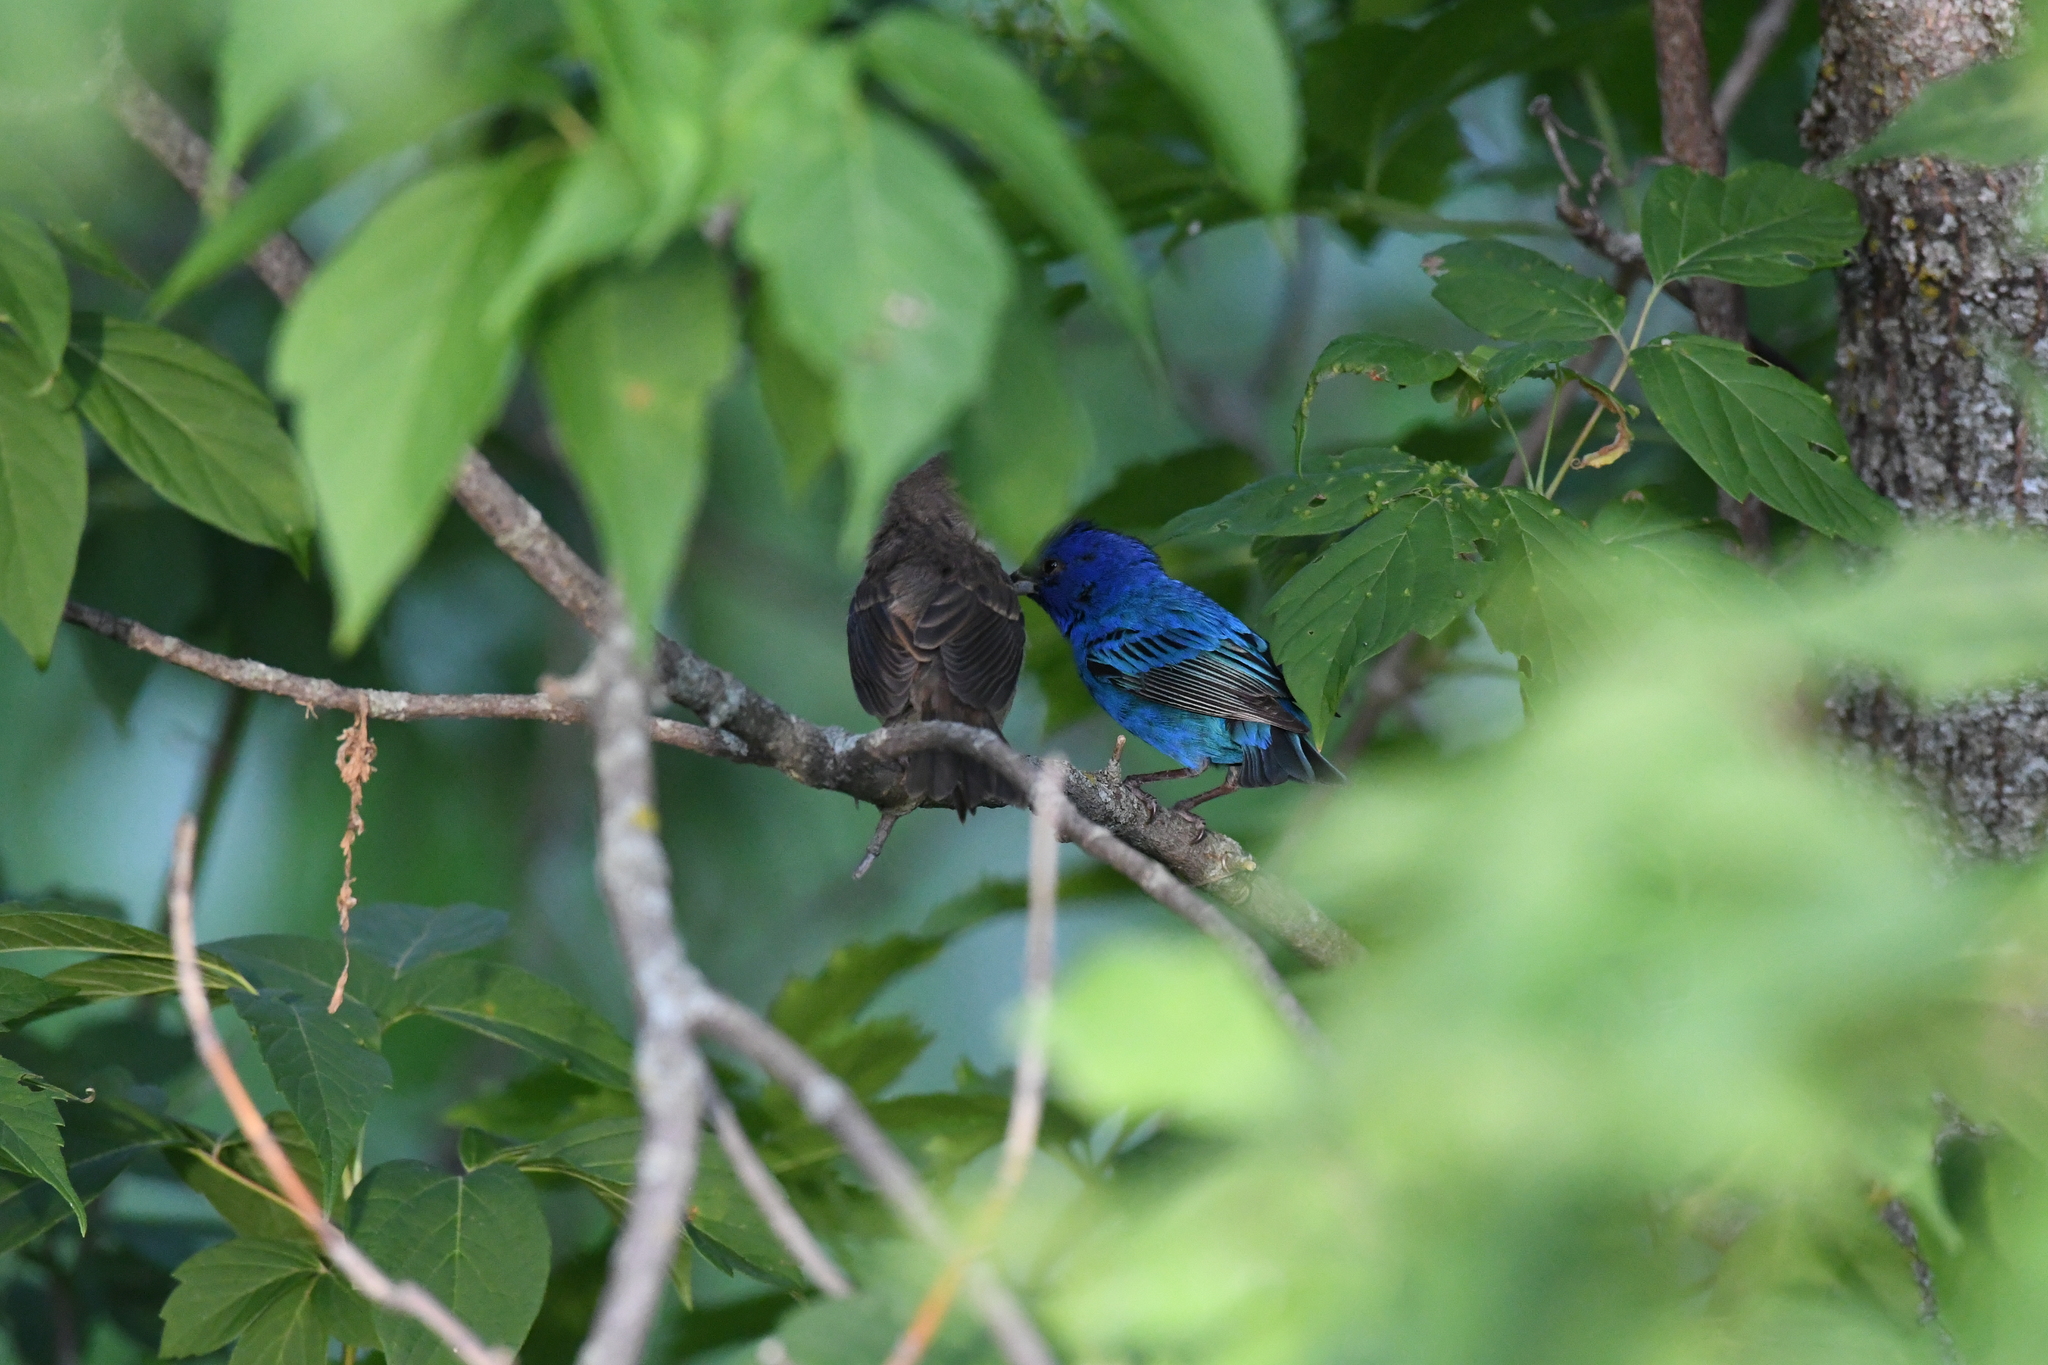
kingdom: Animalia
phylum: Chordata
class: Aves
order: Passeriformes
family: Cardinalidae
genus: Passerina
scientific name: Passerina cyanea
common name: Indigo bunting
